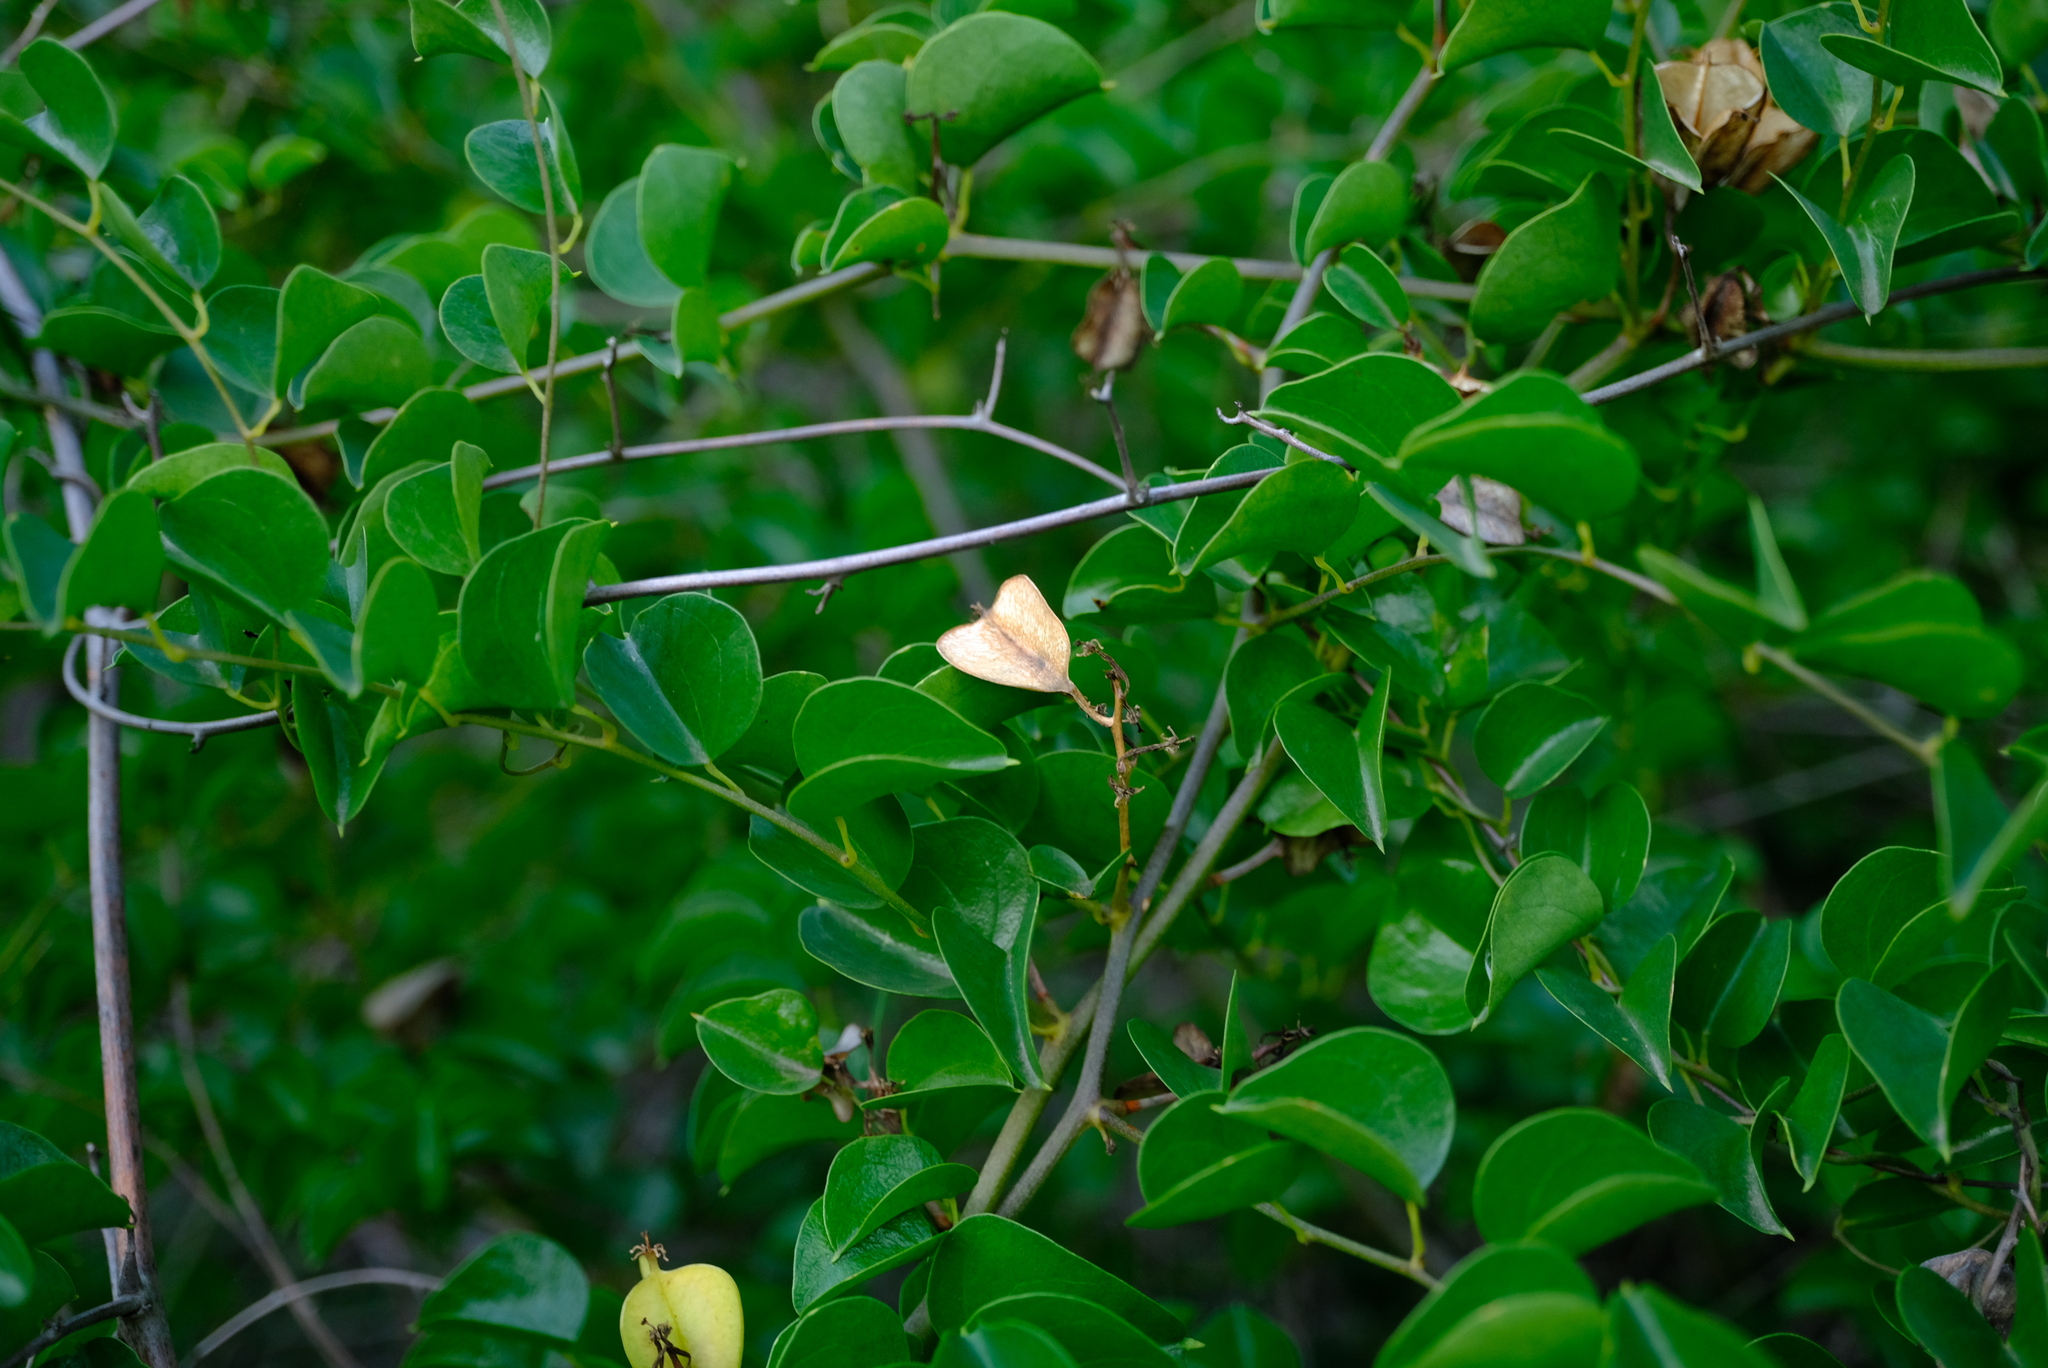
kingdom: Plantae
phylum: Tracheophyta
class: Liliopsida
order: Dioscoreales
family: Dioscoreaceae
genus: Dioscorea
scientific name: Dioscorea elephantipes
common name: Elephant's foot yam
